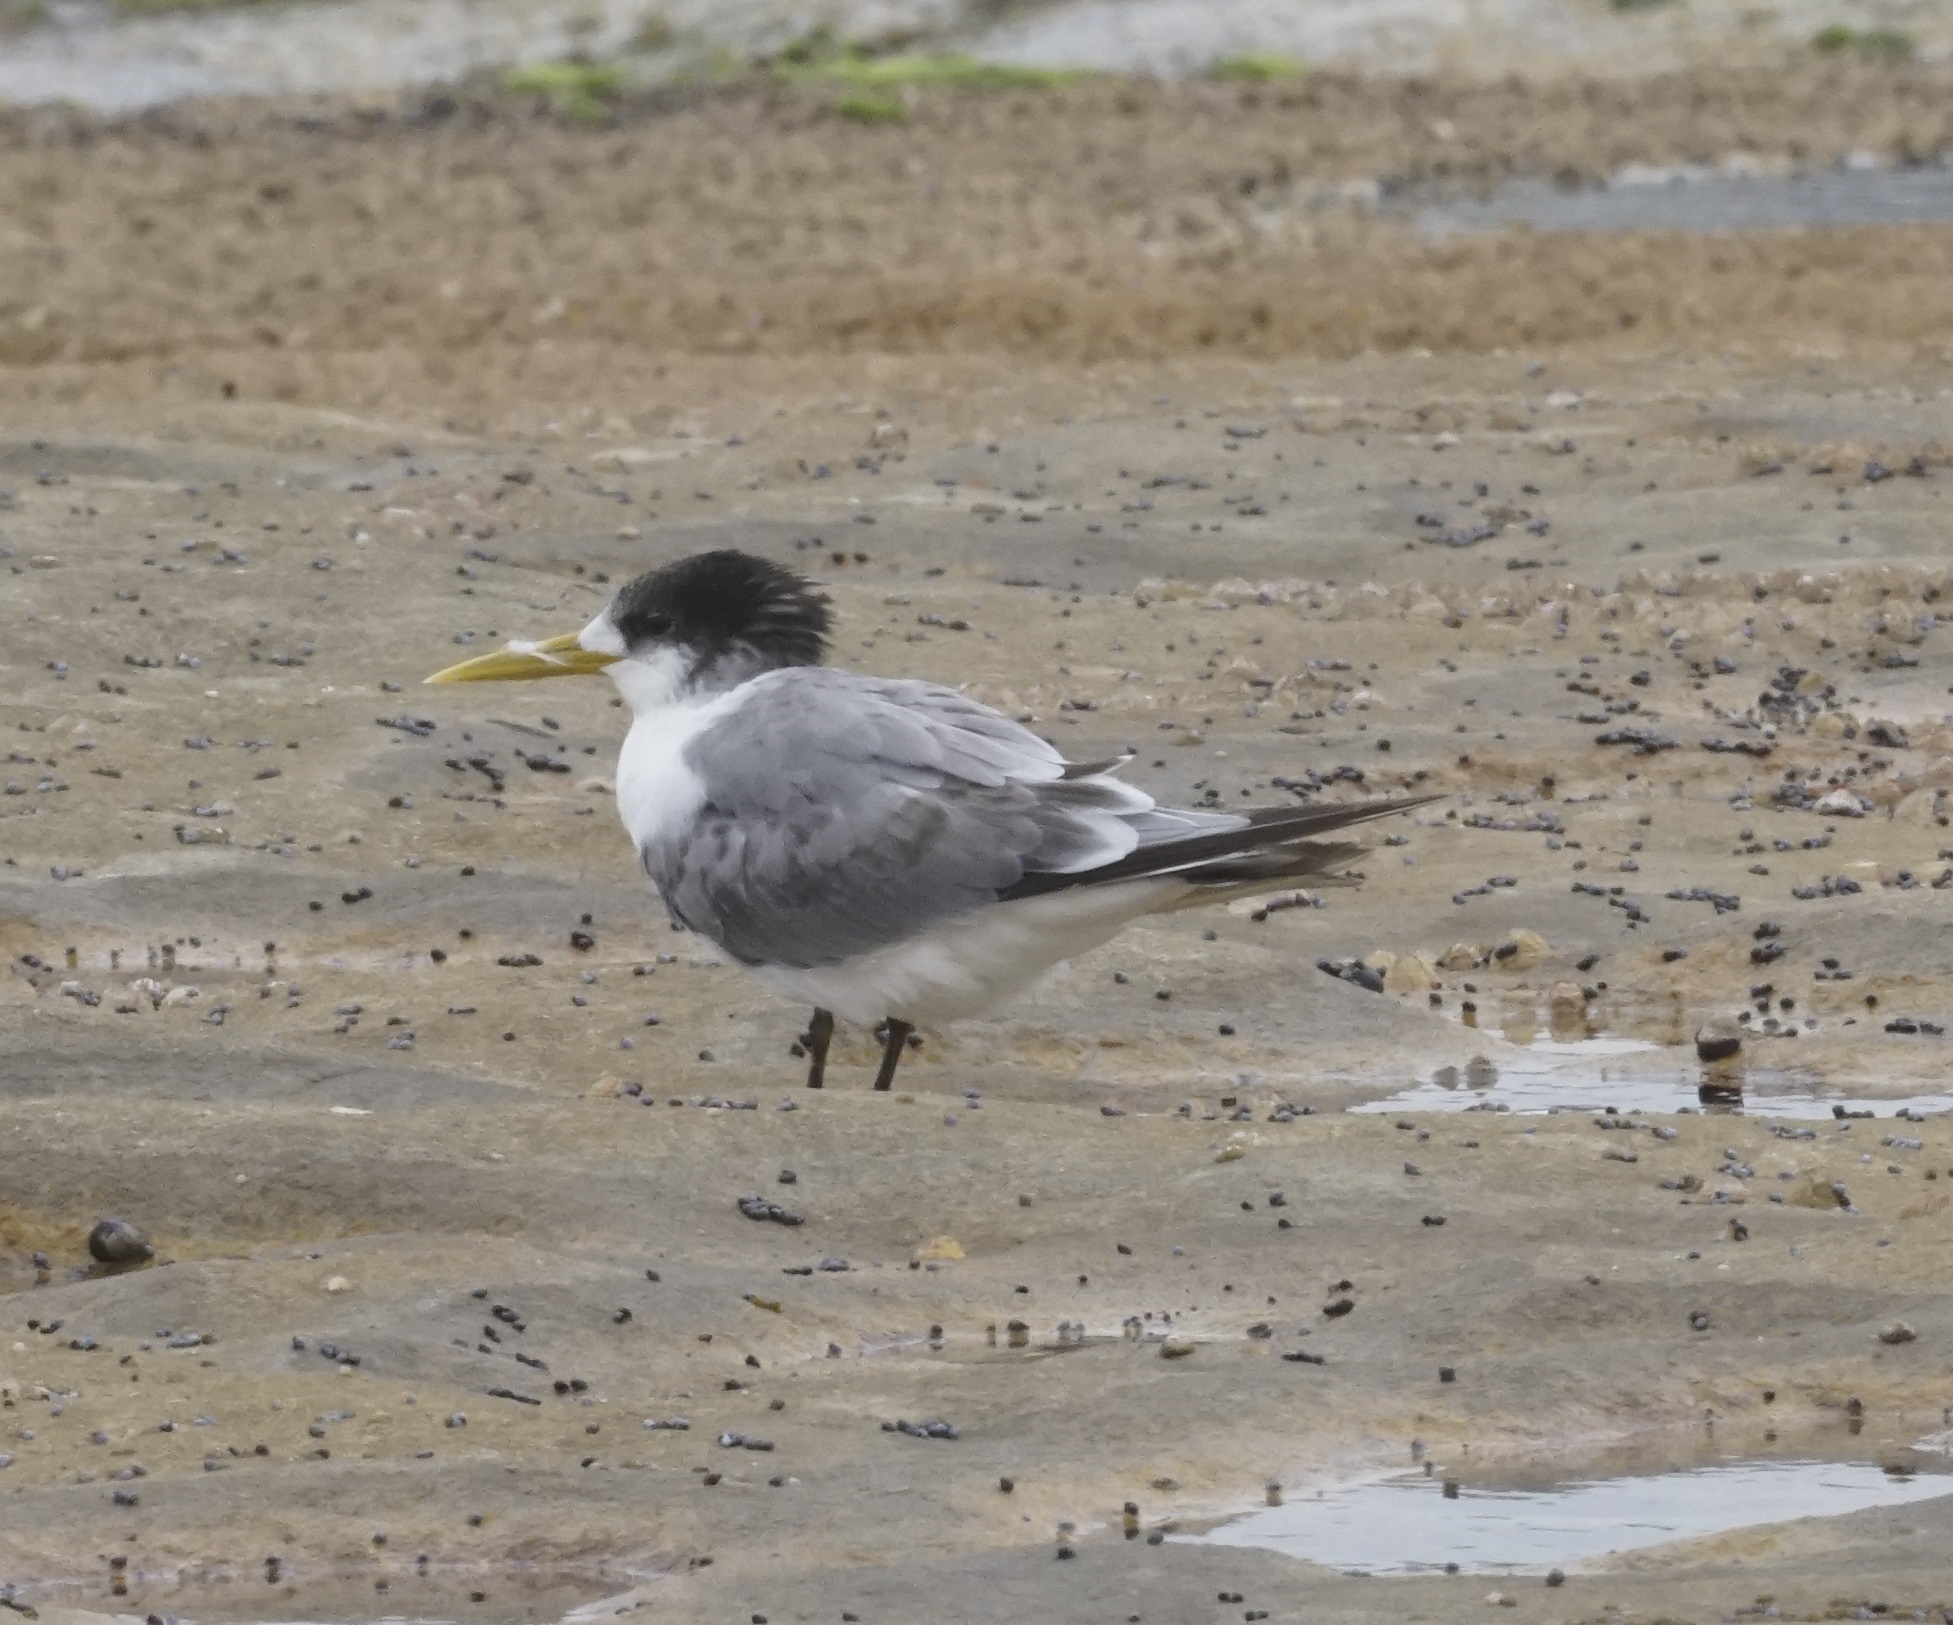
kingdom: Animalia
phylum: Chordata
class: Aves
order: Charadriiformes
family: Laridae
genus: Thalasseus
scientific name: Thalasseus bergii
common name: Greater crested tern
